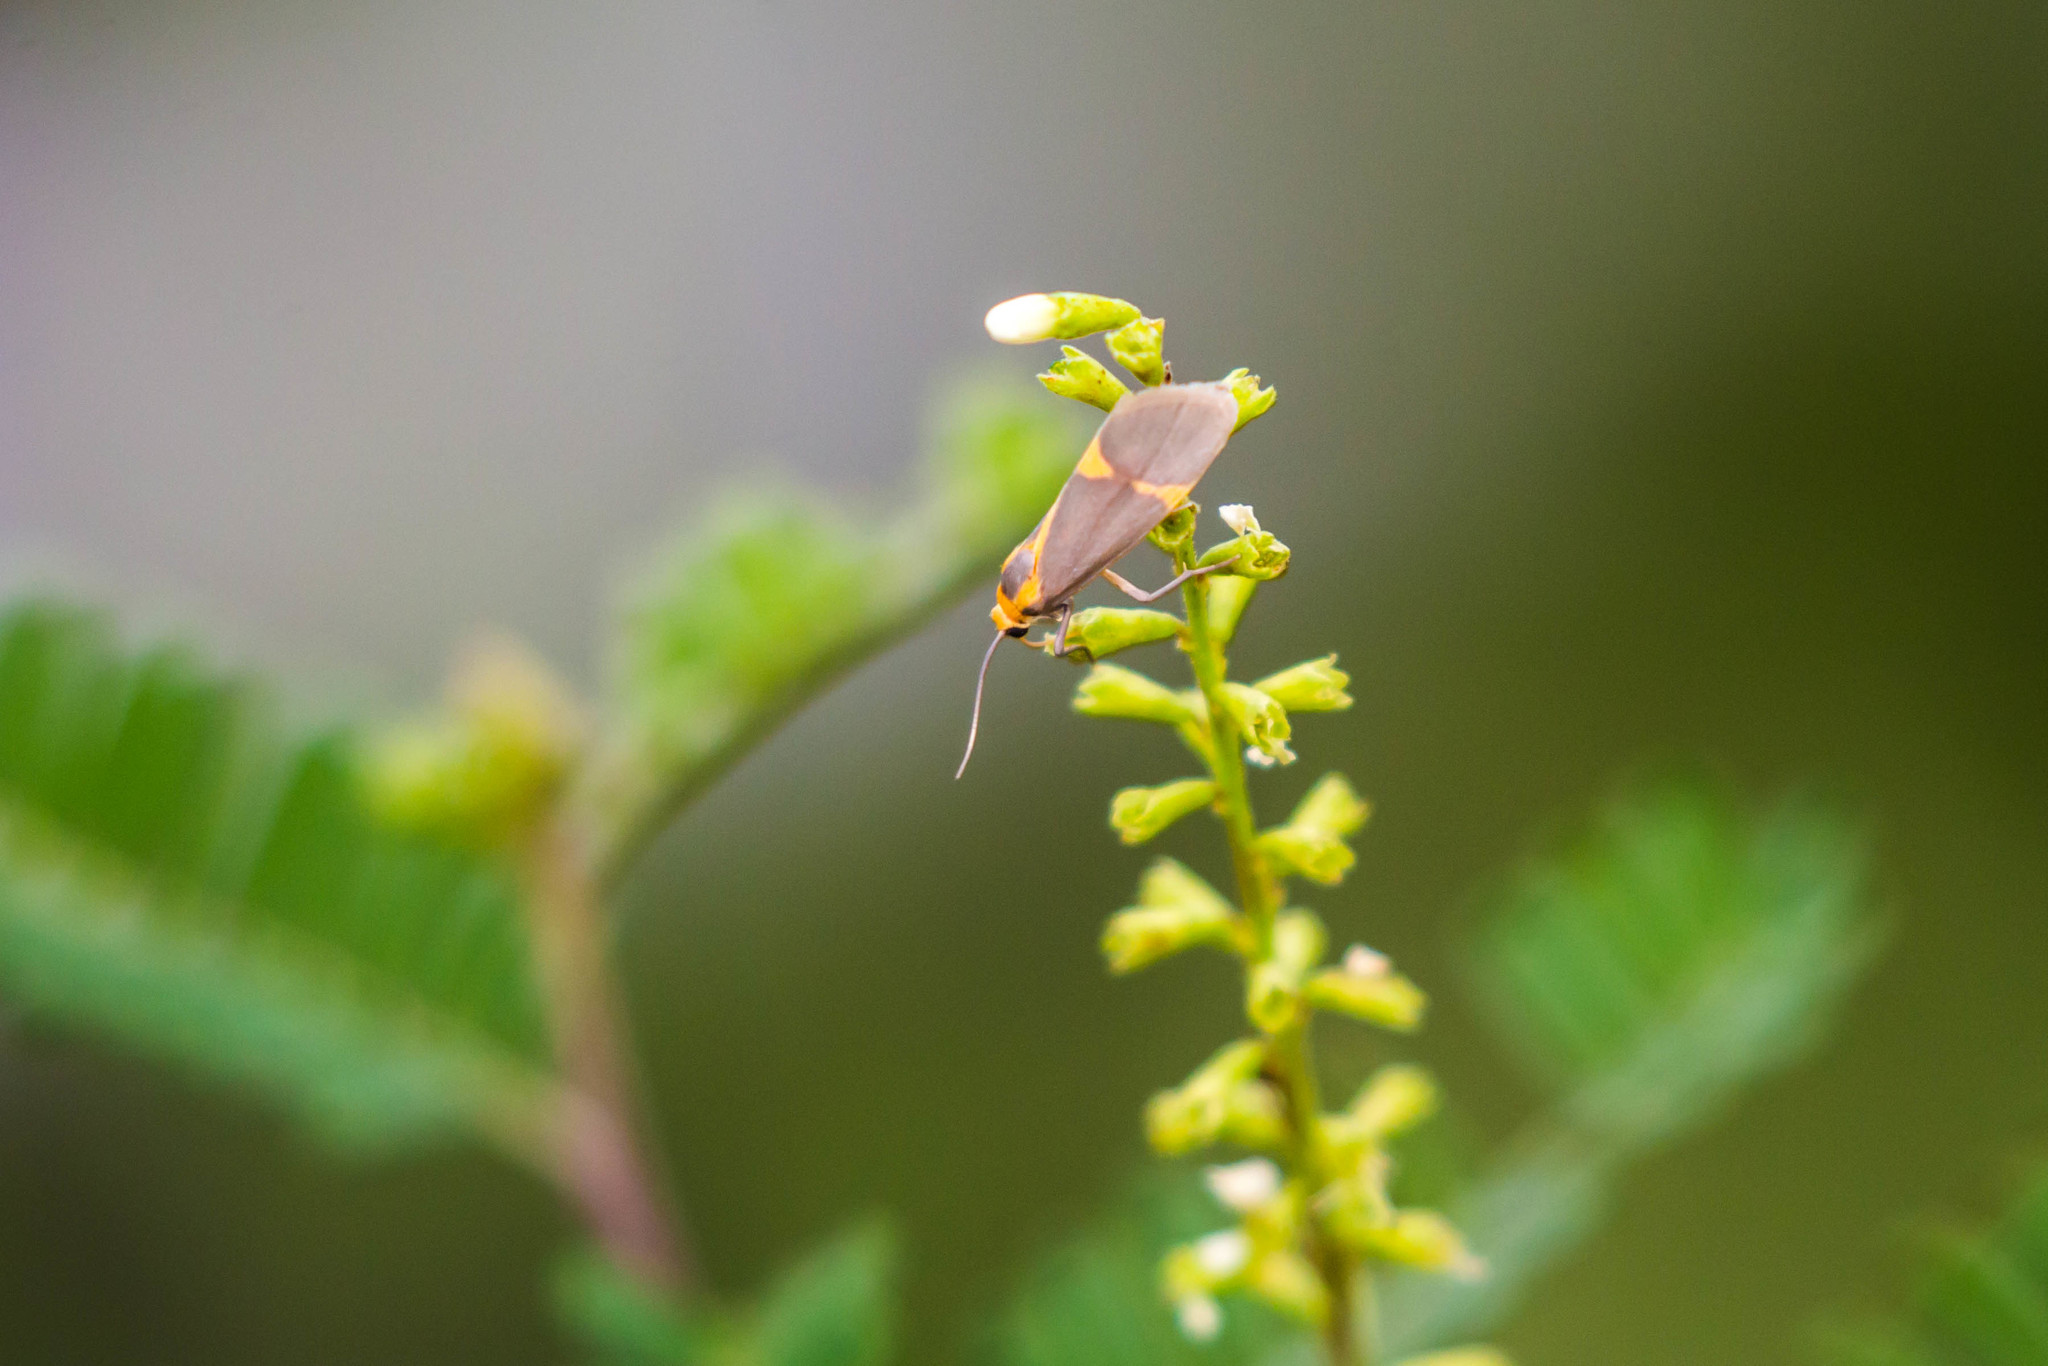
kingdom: Animalia
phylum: Arthropoda
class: Insecta
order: Lepidoptera
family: Erebidae
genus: Cisthene
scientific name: Cisthene tenuifascia
